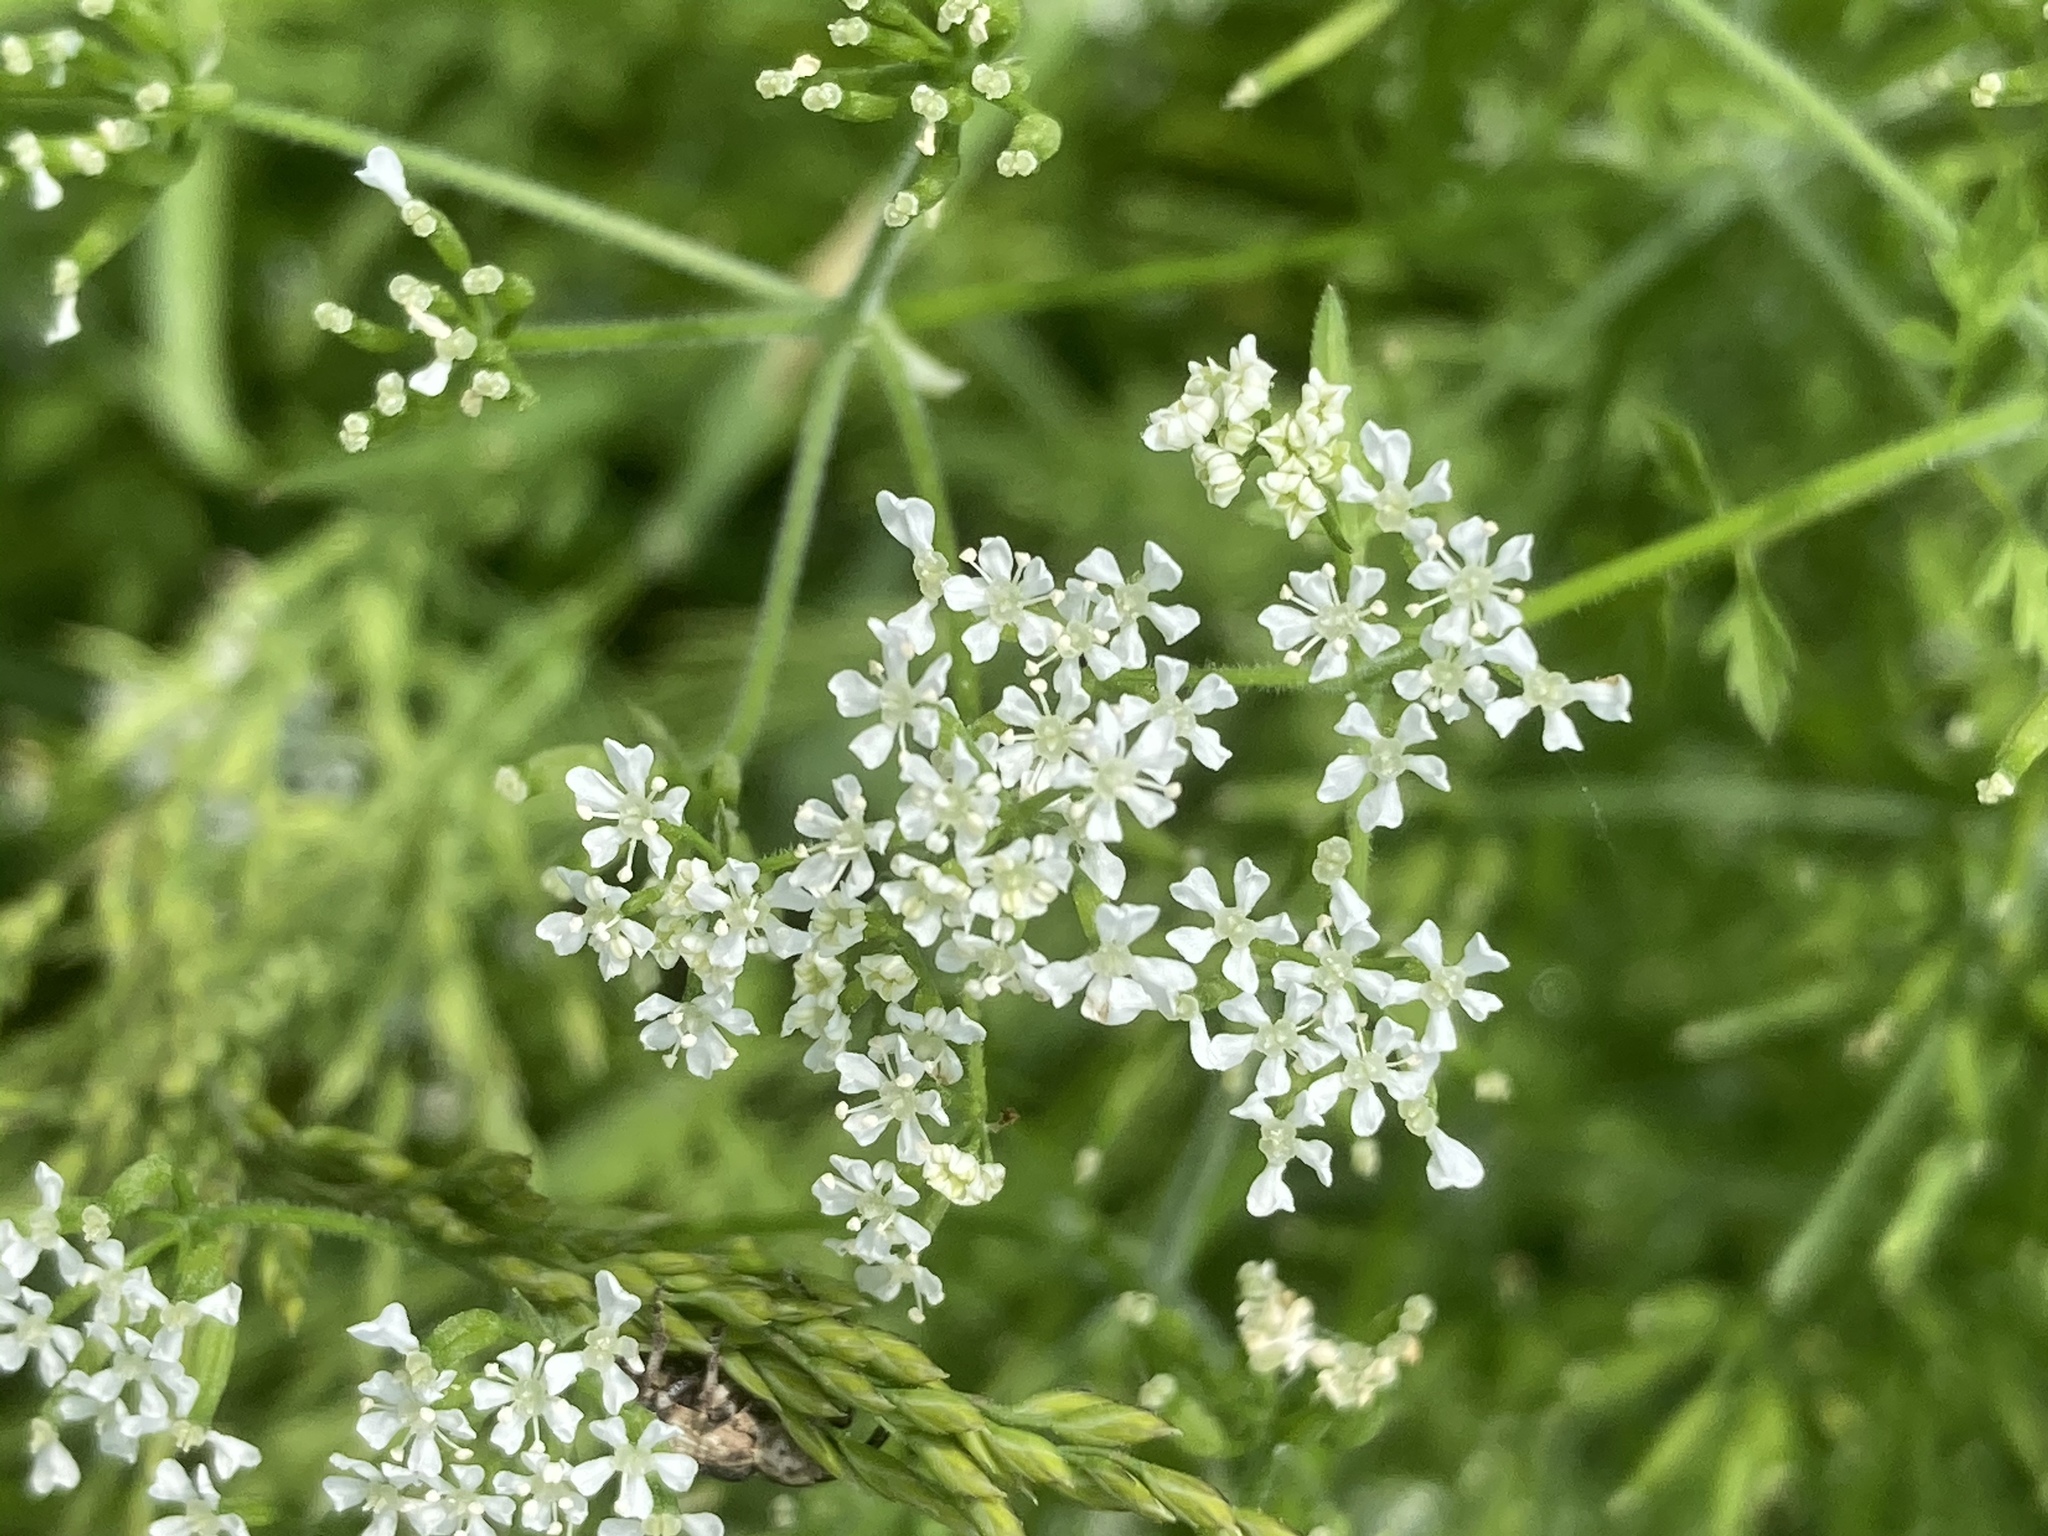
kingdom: Plantae
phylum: Tracheophyta
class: Magnoliopsida
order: Apiales
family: Apiaceae
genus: Anthriscus
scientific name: Anthriscus cerefolium
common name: Garden chervil
